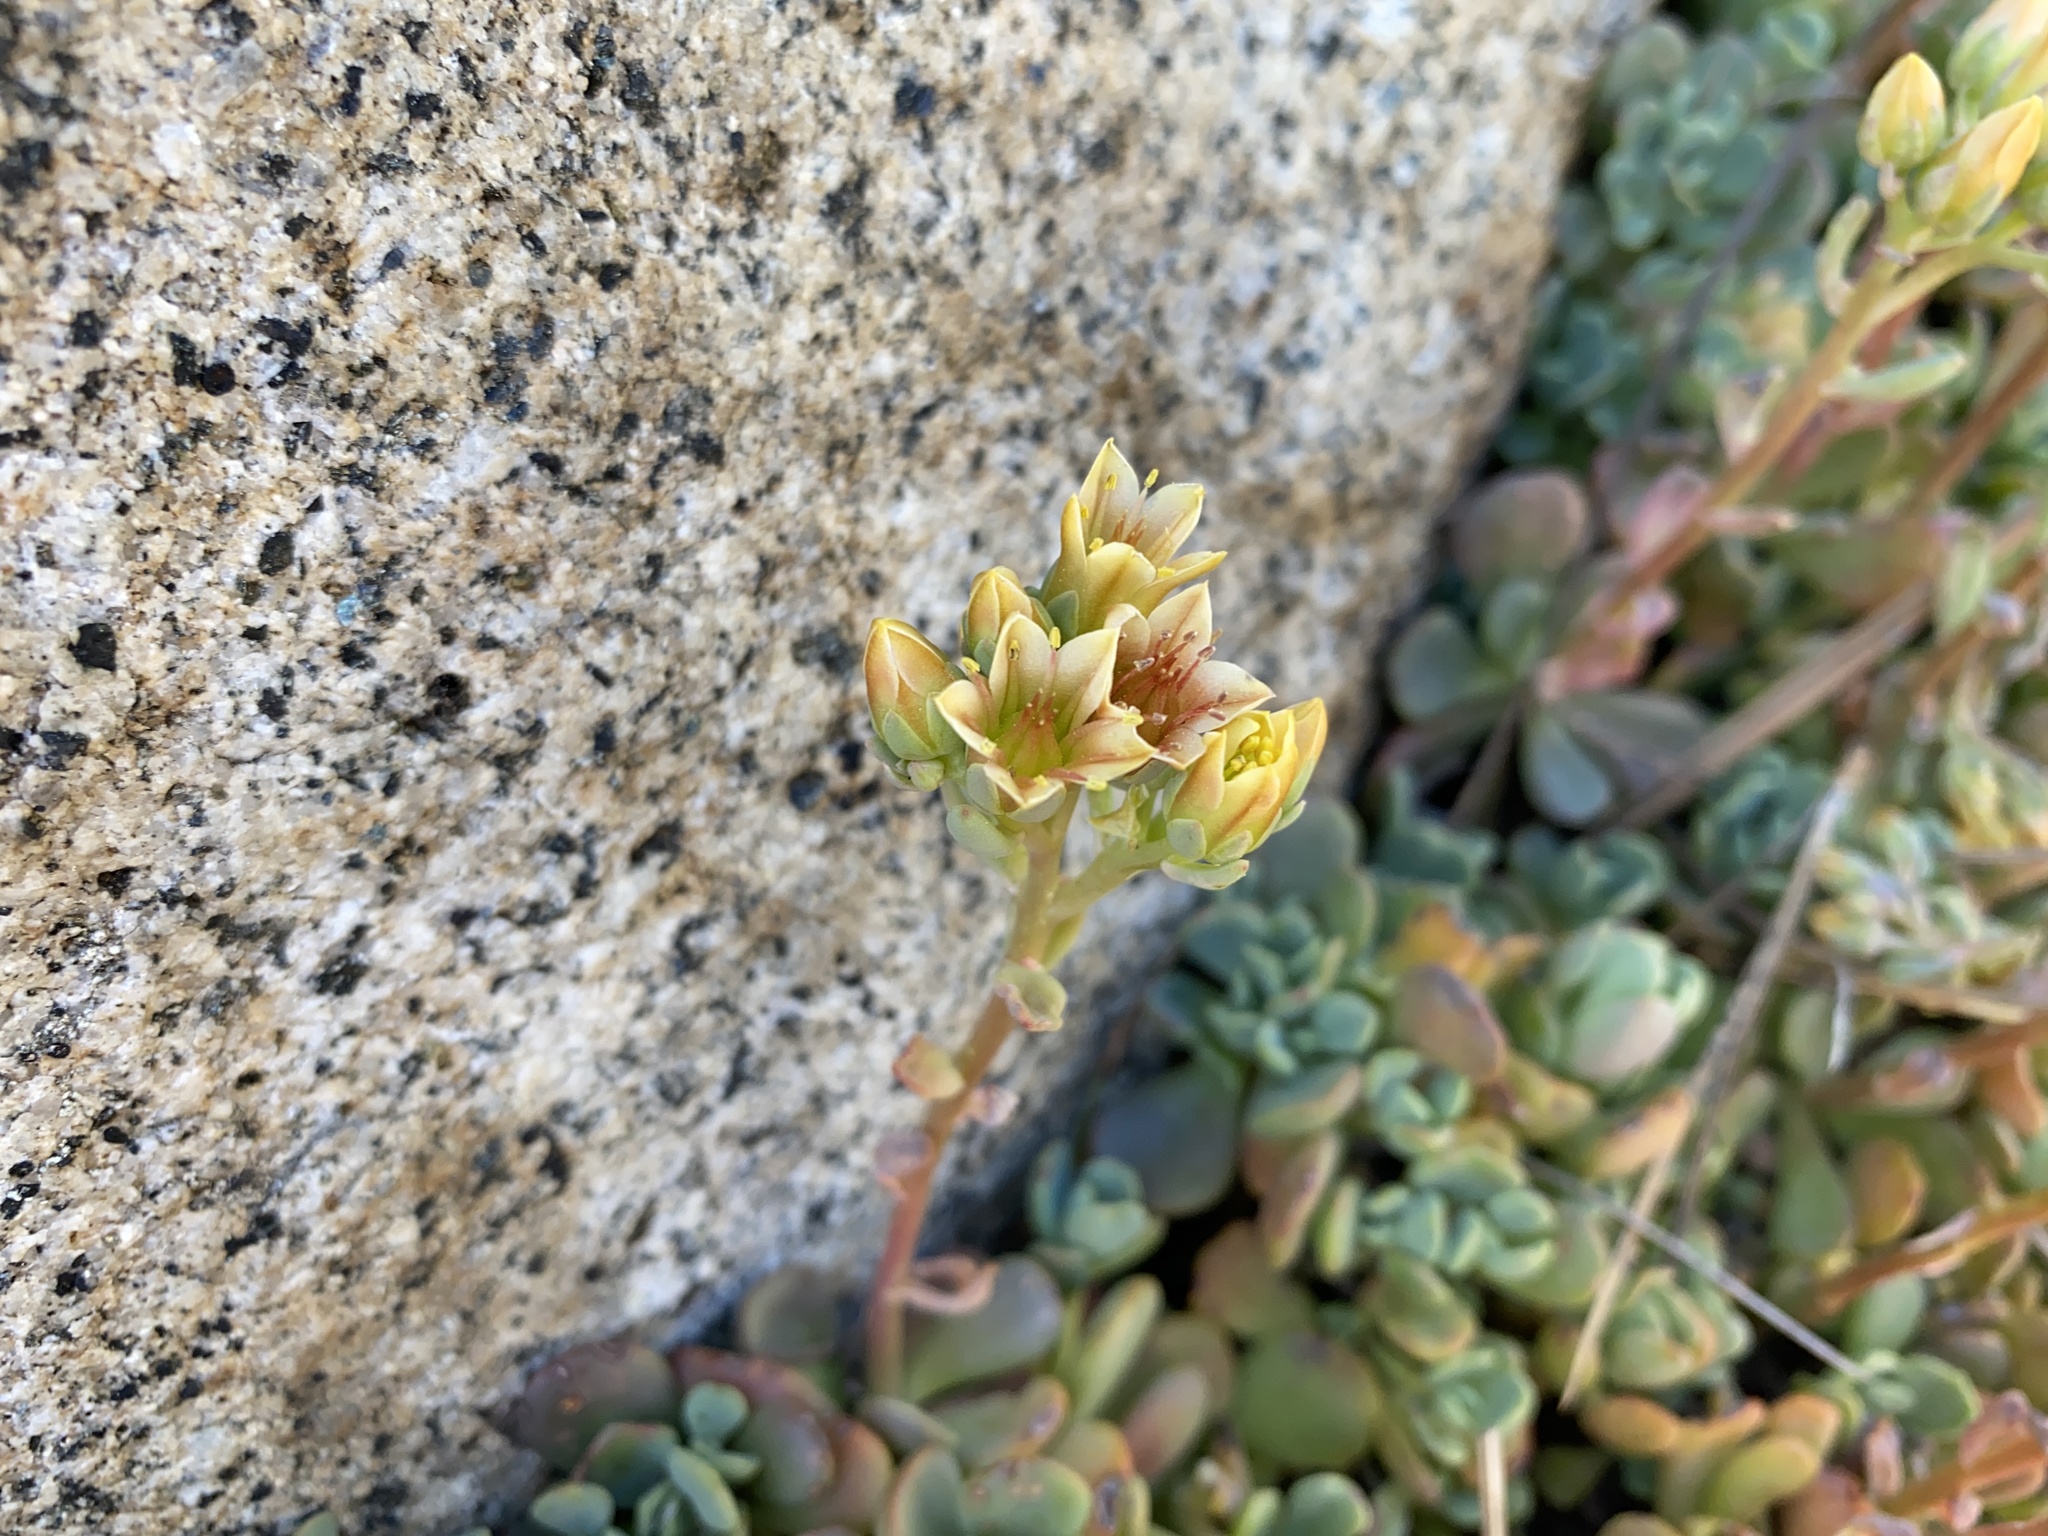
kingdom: Plantae
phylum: Tracheophyta
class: Magnoliopsida
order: Saxifragales
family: Crassulaceae
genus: Sedum
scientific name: Sedum obtusatum
